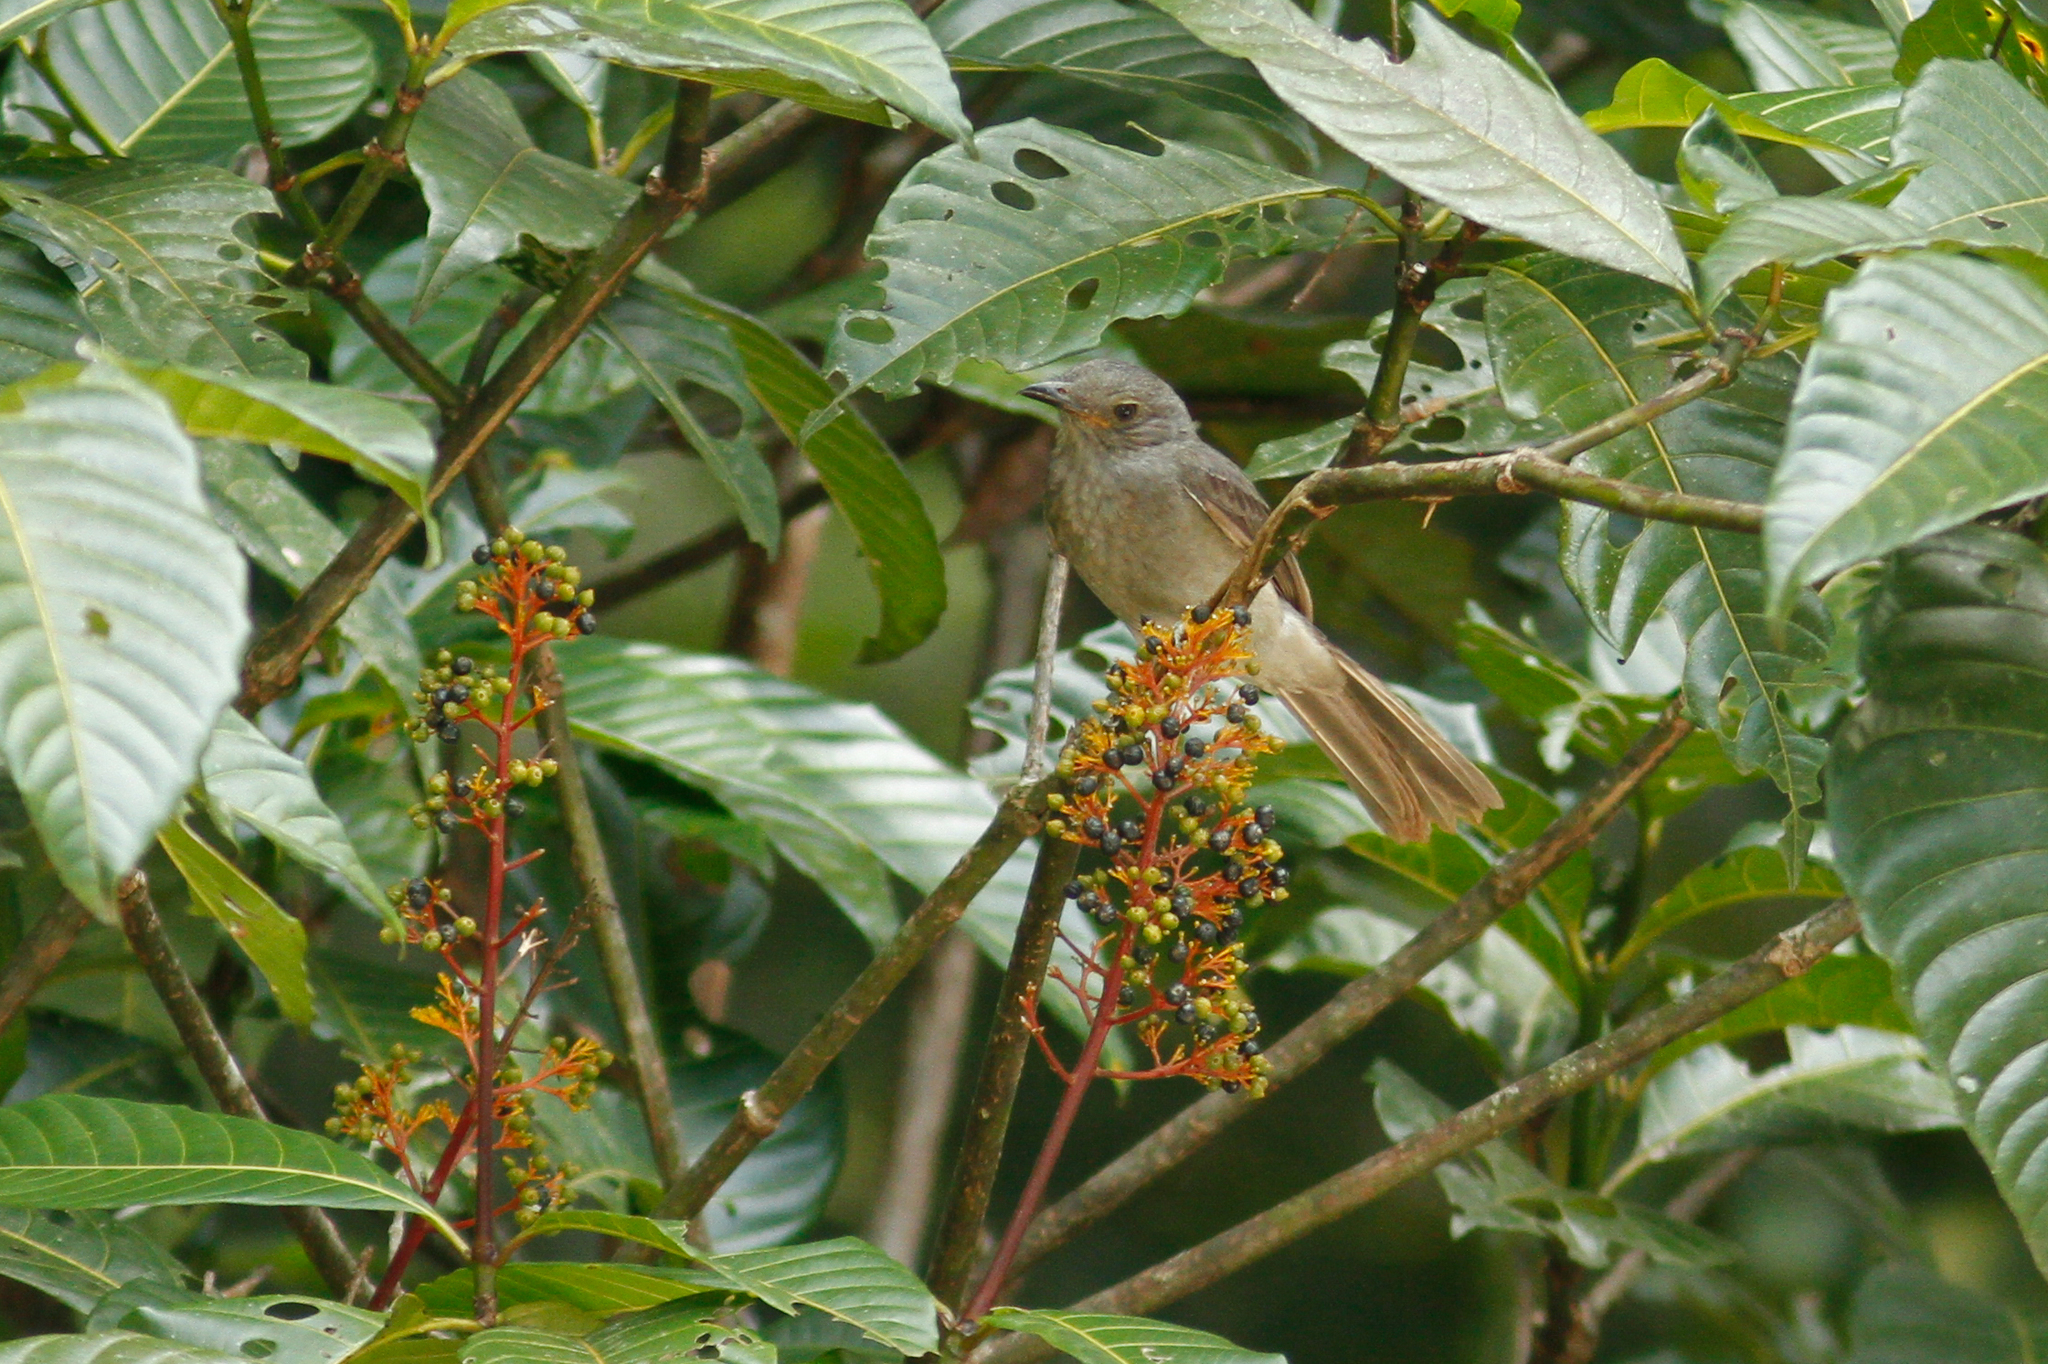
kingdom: Animalia
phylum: Chordata
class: Aves
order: Passeriformes
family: Cotingidae
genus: Lipaugus
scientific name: Lipaugus vociferans
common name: Screaming piha
